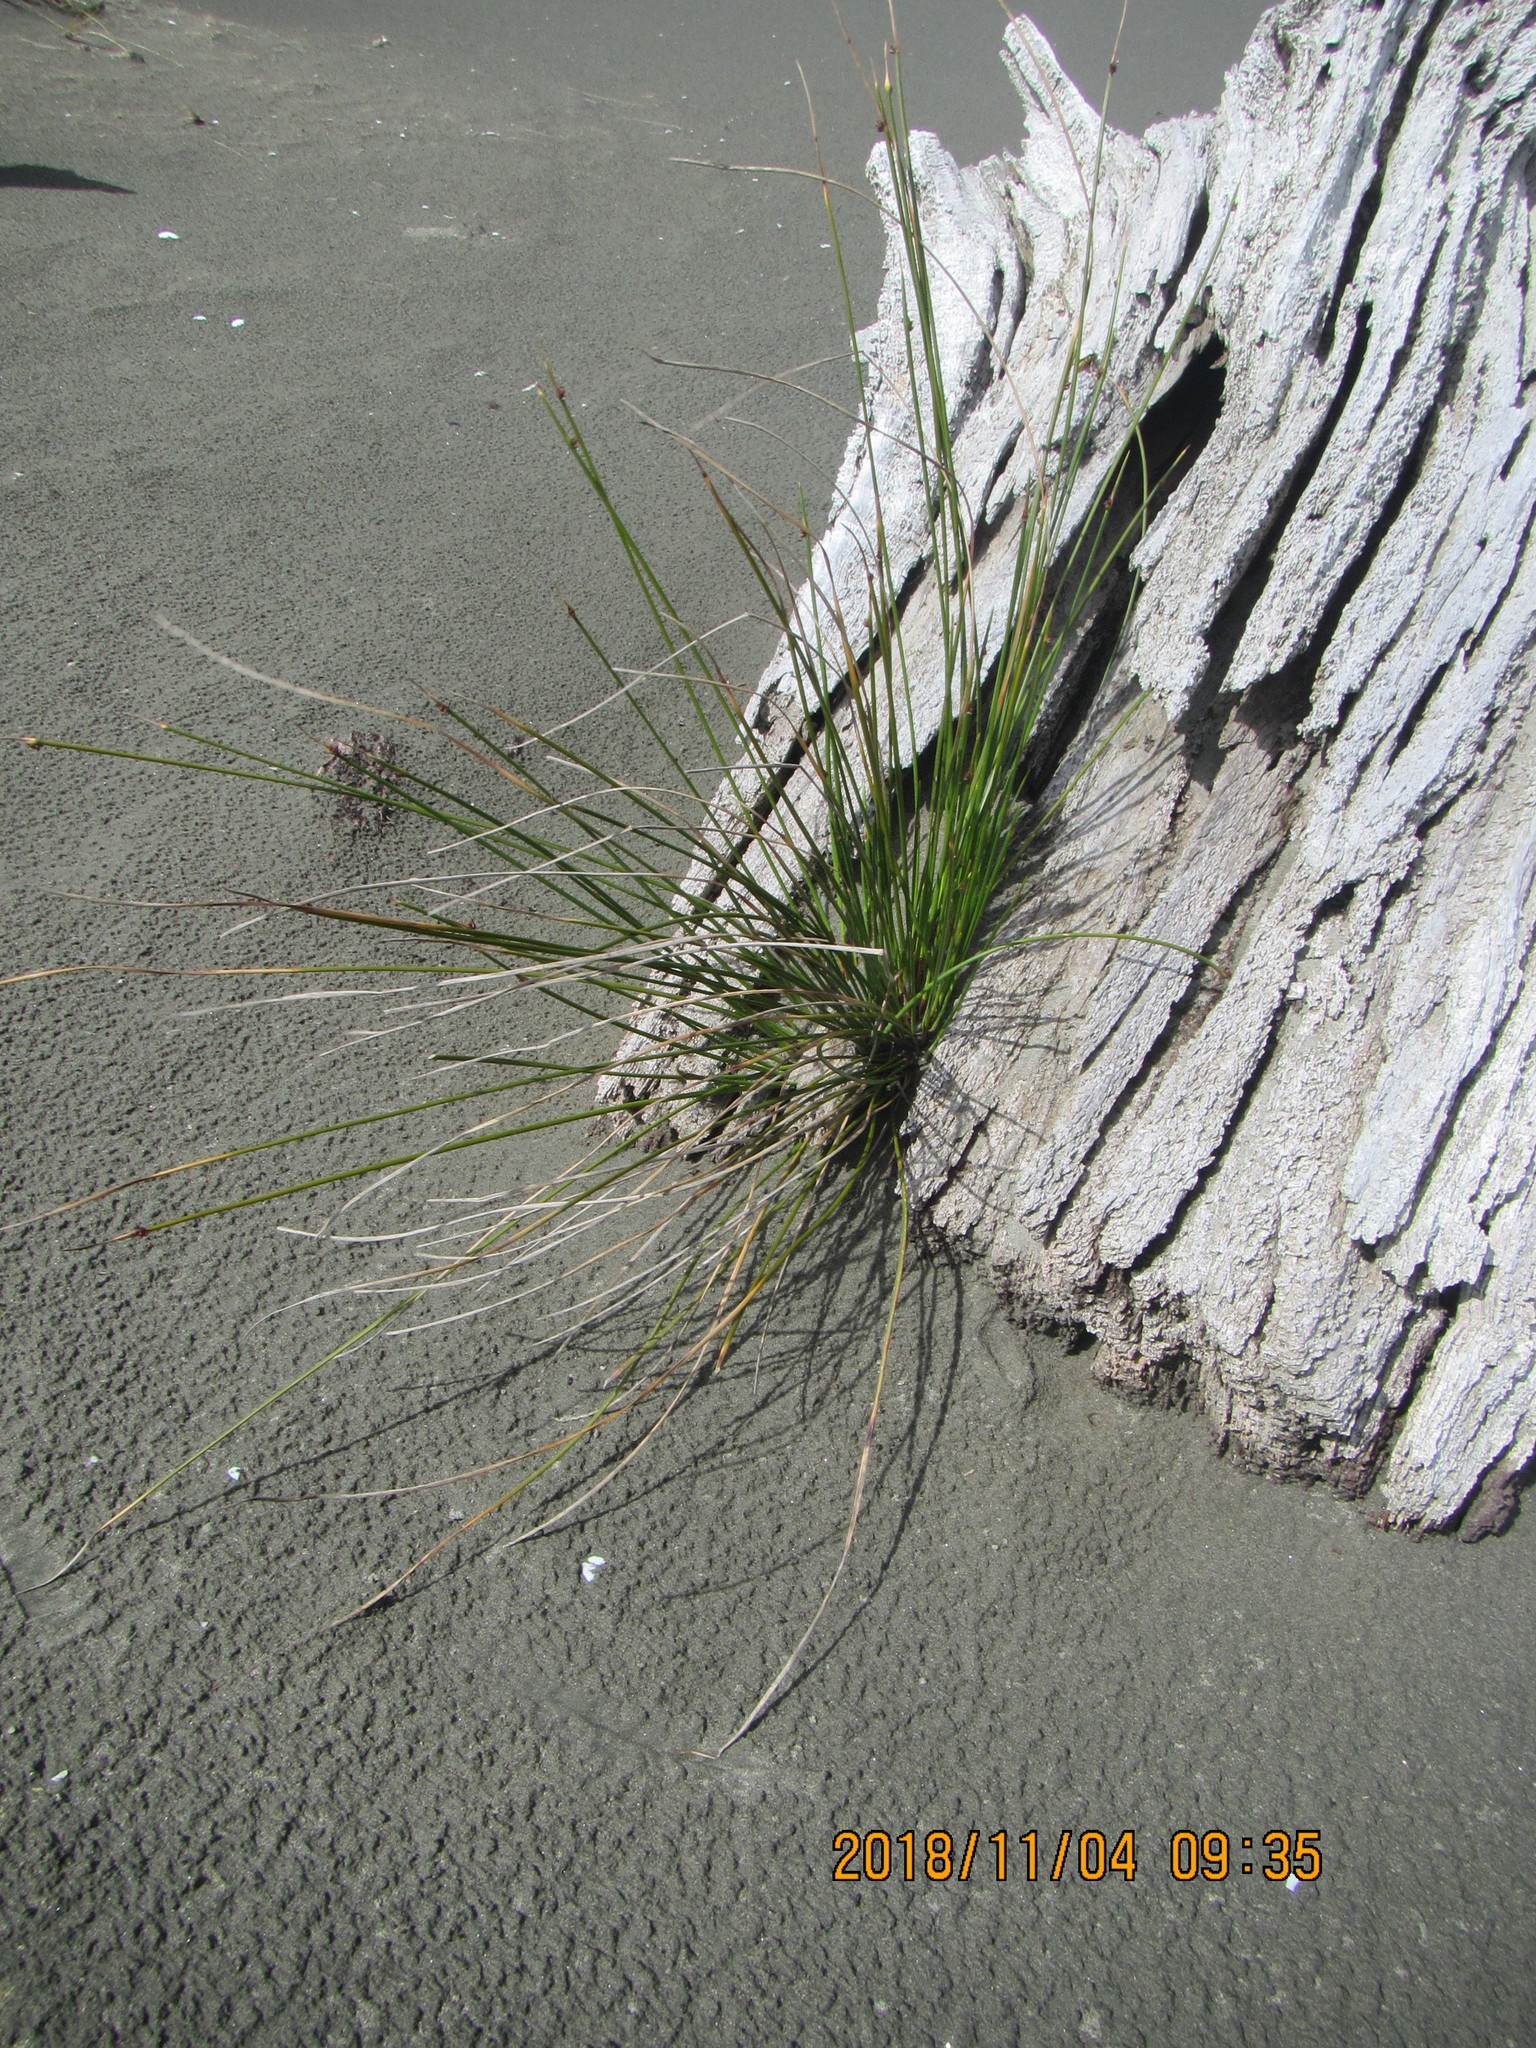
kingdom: Plantae
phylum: Tracheophyta
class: Liliopsida
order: Poales
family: Cyperaceae
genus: Ficinia
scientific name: Ficinia nodosa
